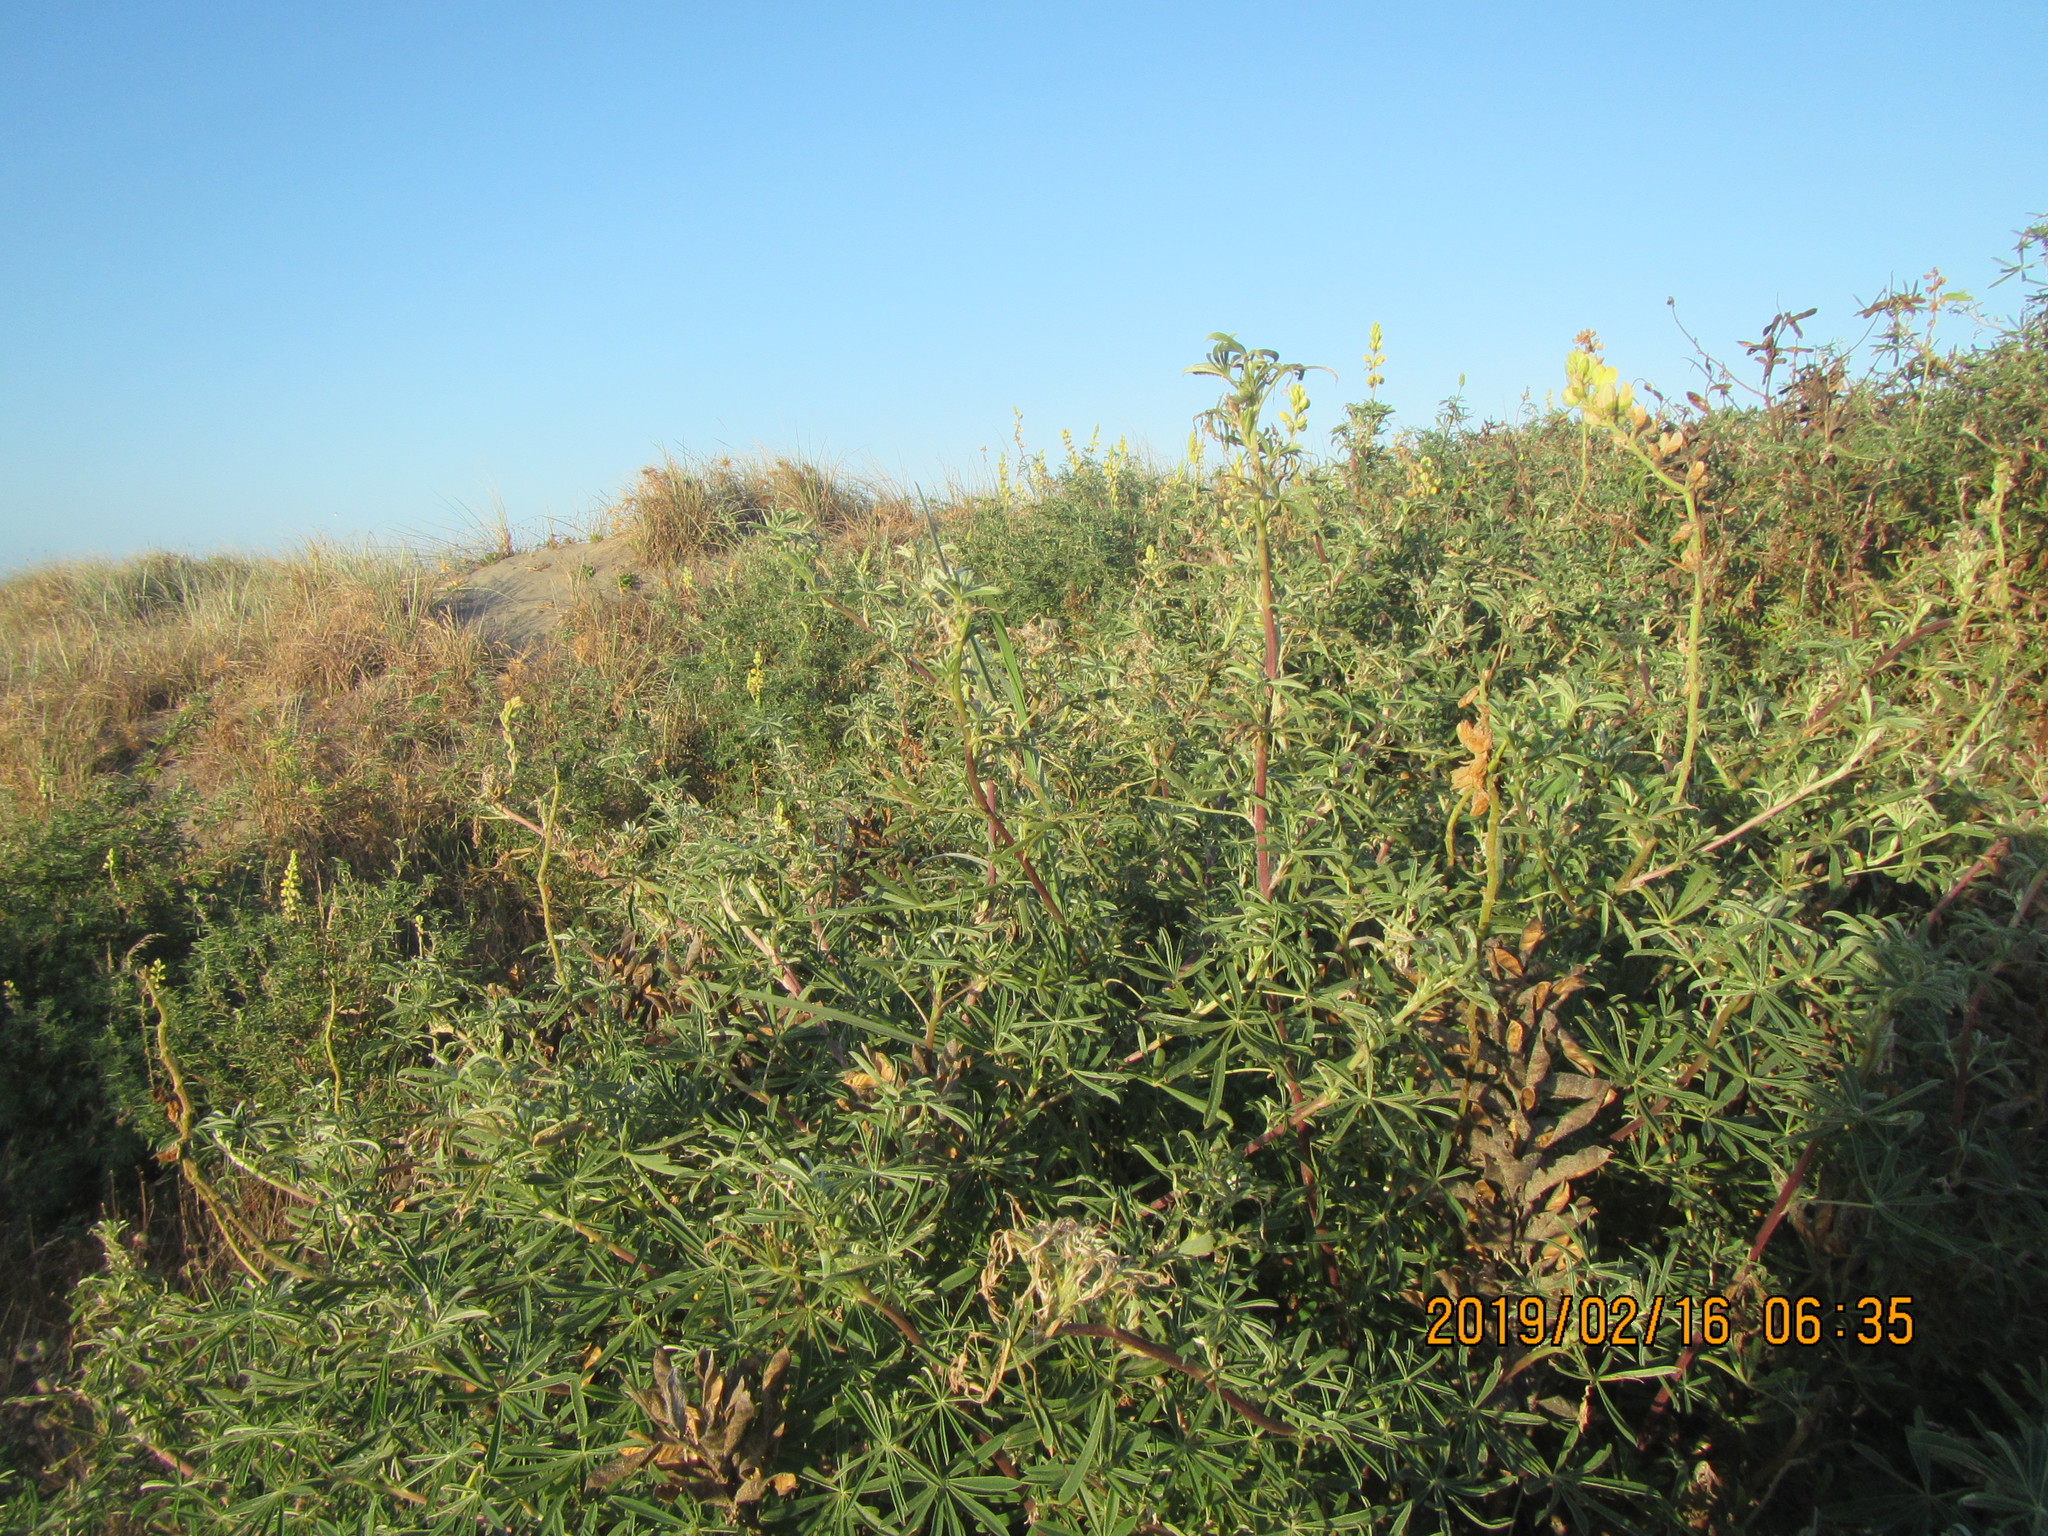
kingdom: Plantae
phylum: Tracheophyta
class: Magnoliopsida
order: Fabales
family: Fabaceae
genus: Lupinus
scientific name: Lupinus arboreus
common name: Yellow bush lupine
